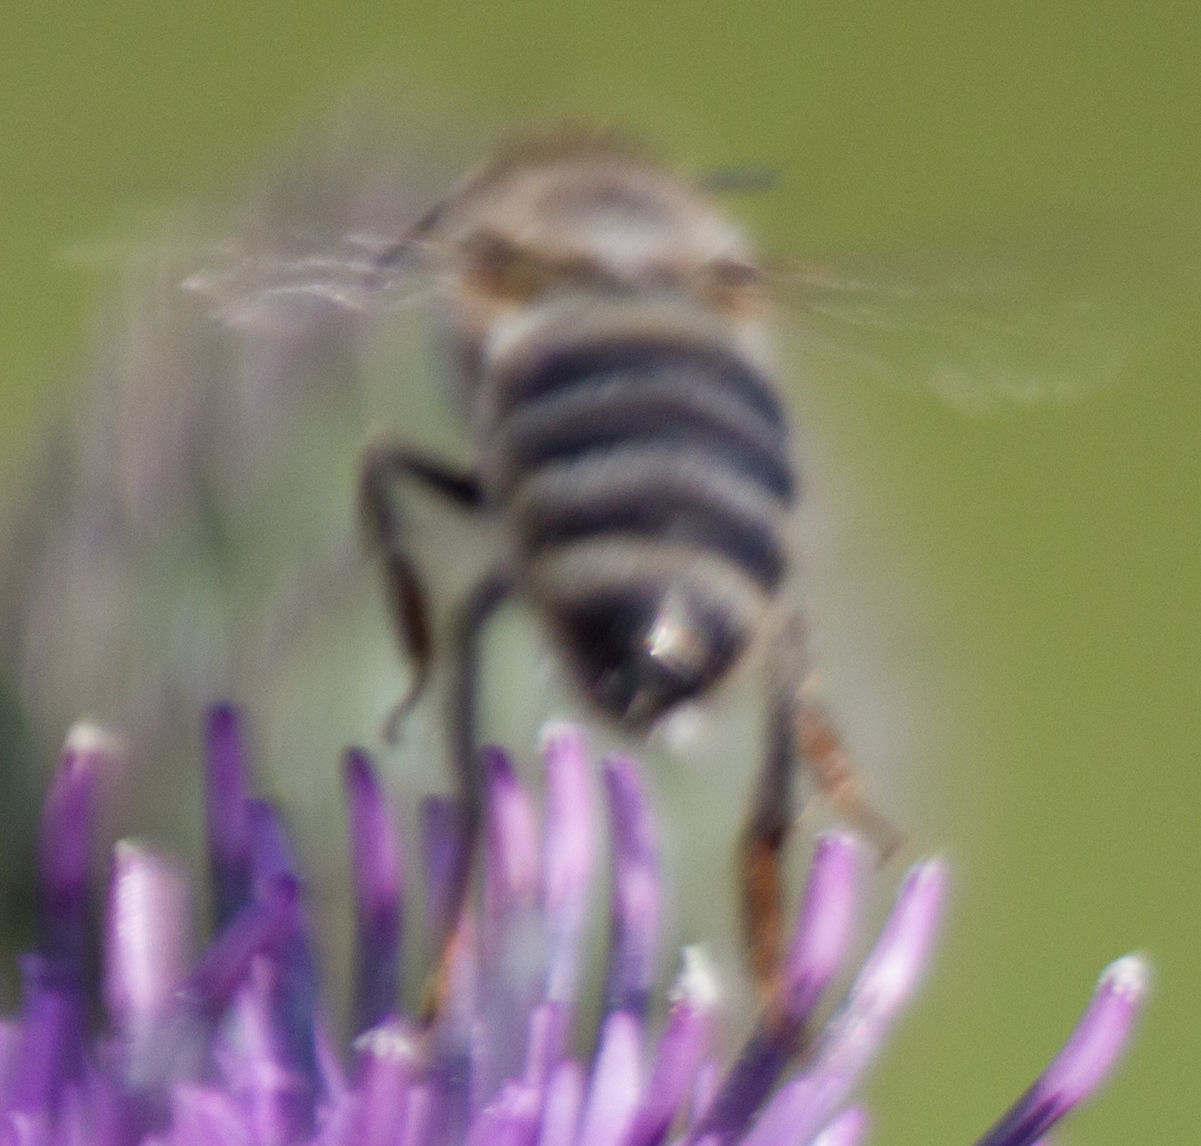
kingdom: Animalia
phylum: Arthropoda
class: Insecta
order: Hymenoptera
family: Apidae
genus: Apis
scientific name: Apis mellifera
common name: Honey bee
